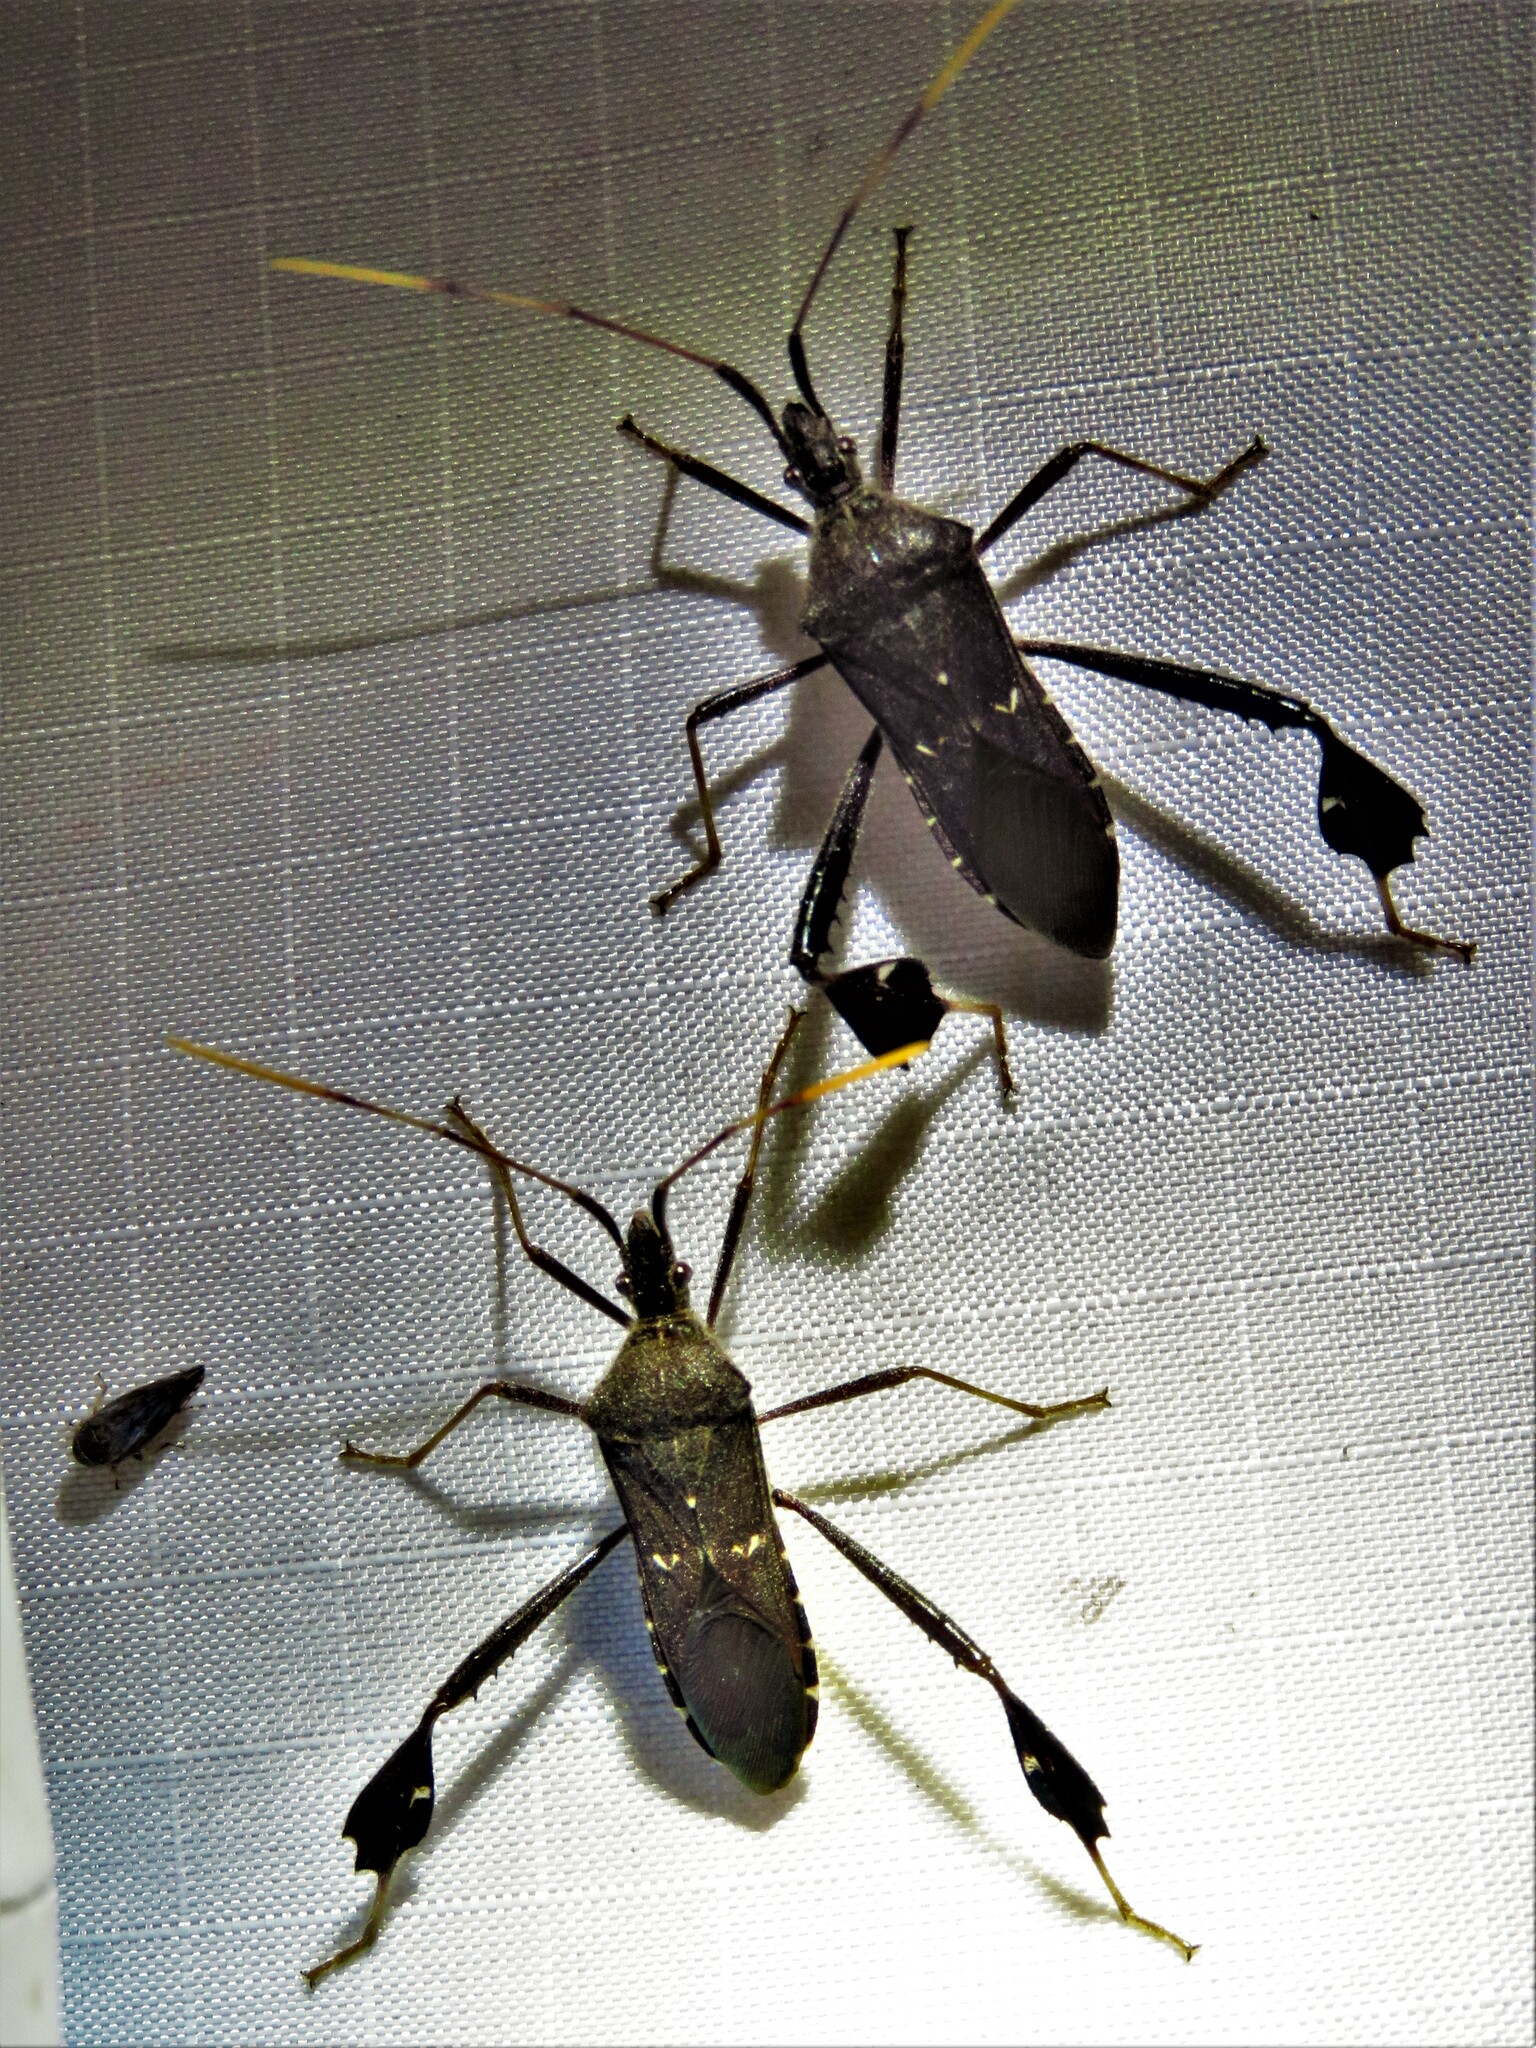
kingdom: Animalia
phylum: Arthropoda
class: Insecta
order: Hemiptera
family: Coreidae
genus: Leptoglossus
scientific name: Leptoglossus oppositus
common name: Northern leaf-footed bug
